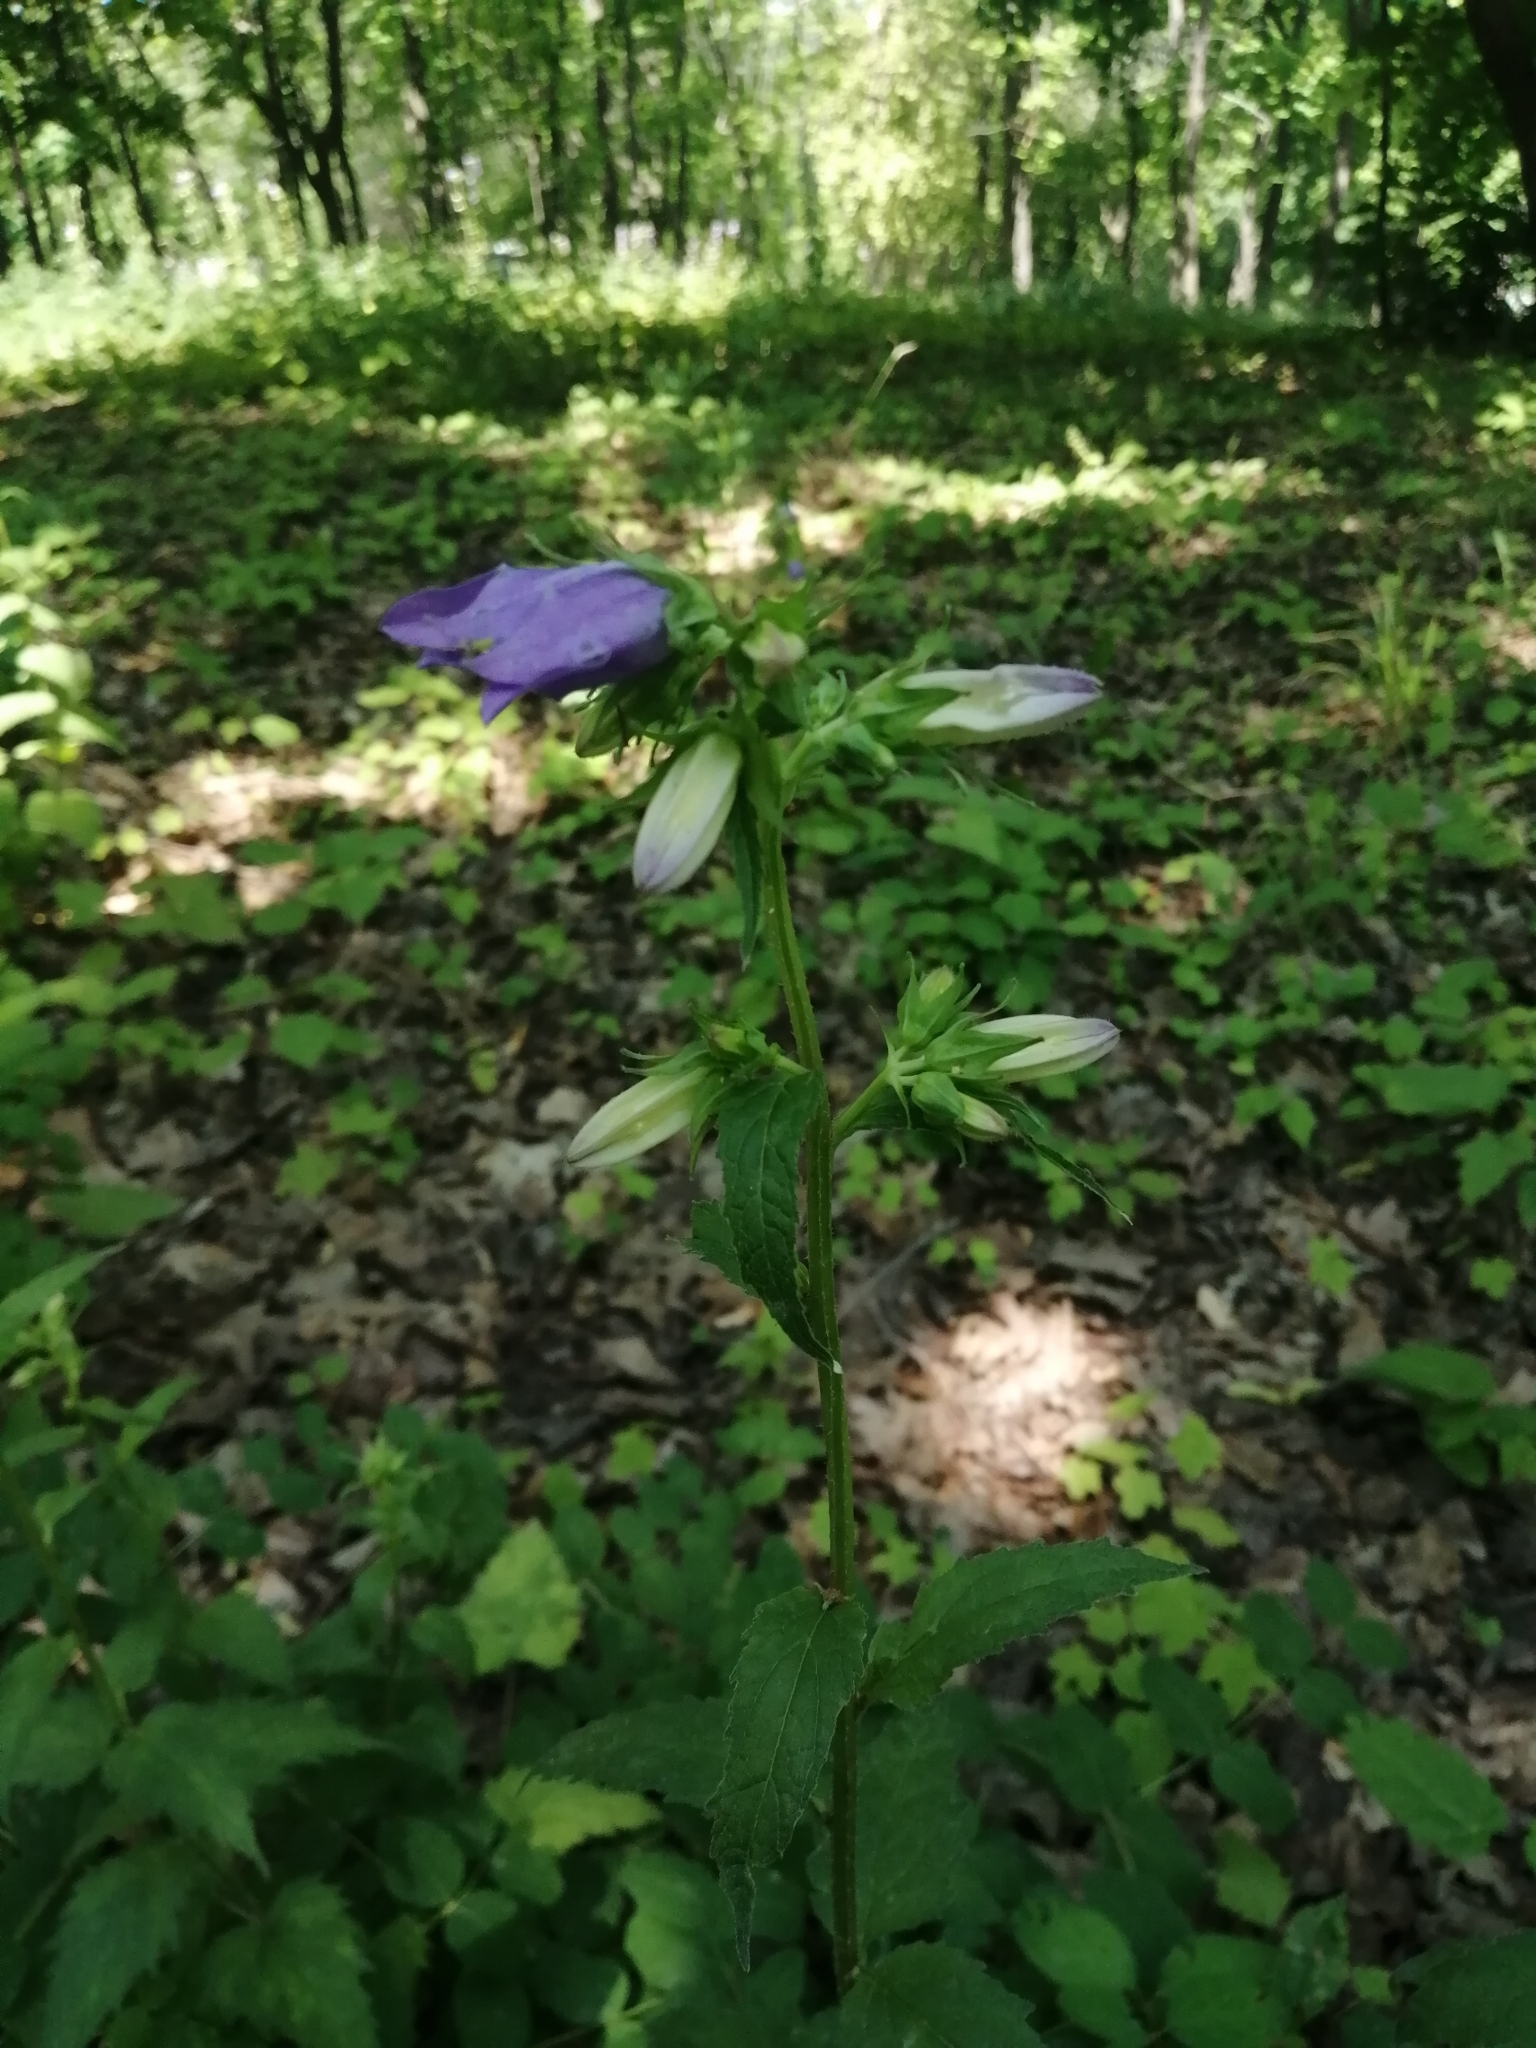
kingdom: Plantae
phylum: Tracheophyta
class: Magnoliopsida
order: Asterales
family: Campanulaceae
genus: Campanula
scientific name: Campanula trachelium
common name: Nettle-leaved bellflower
